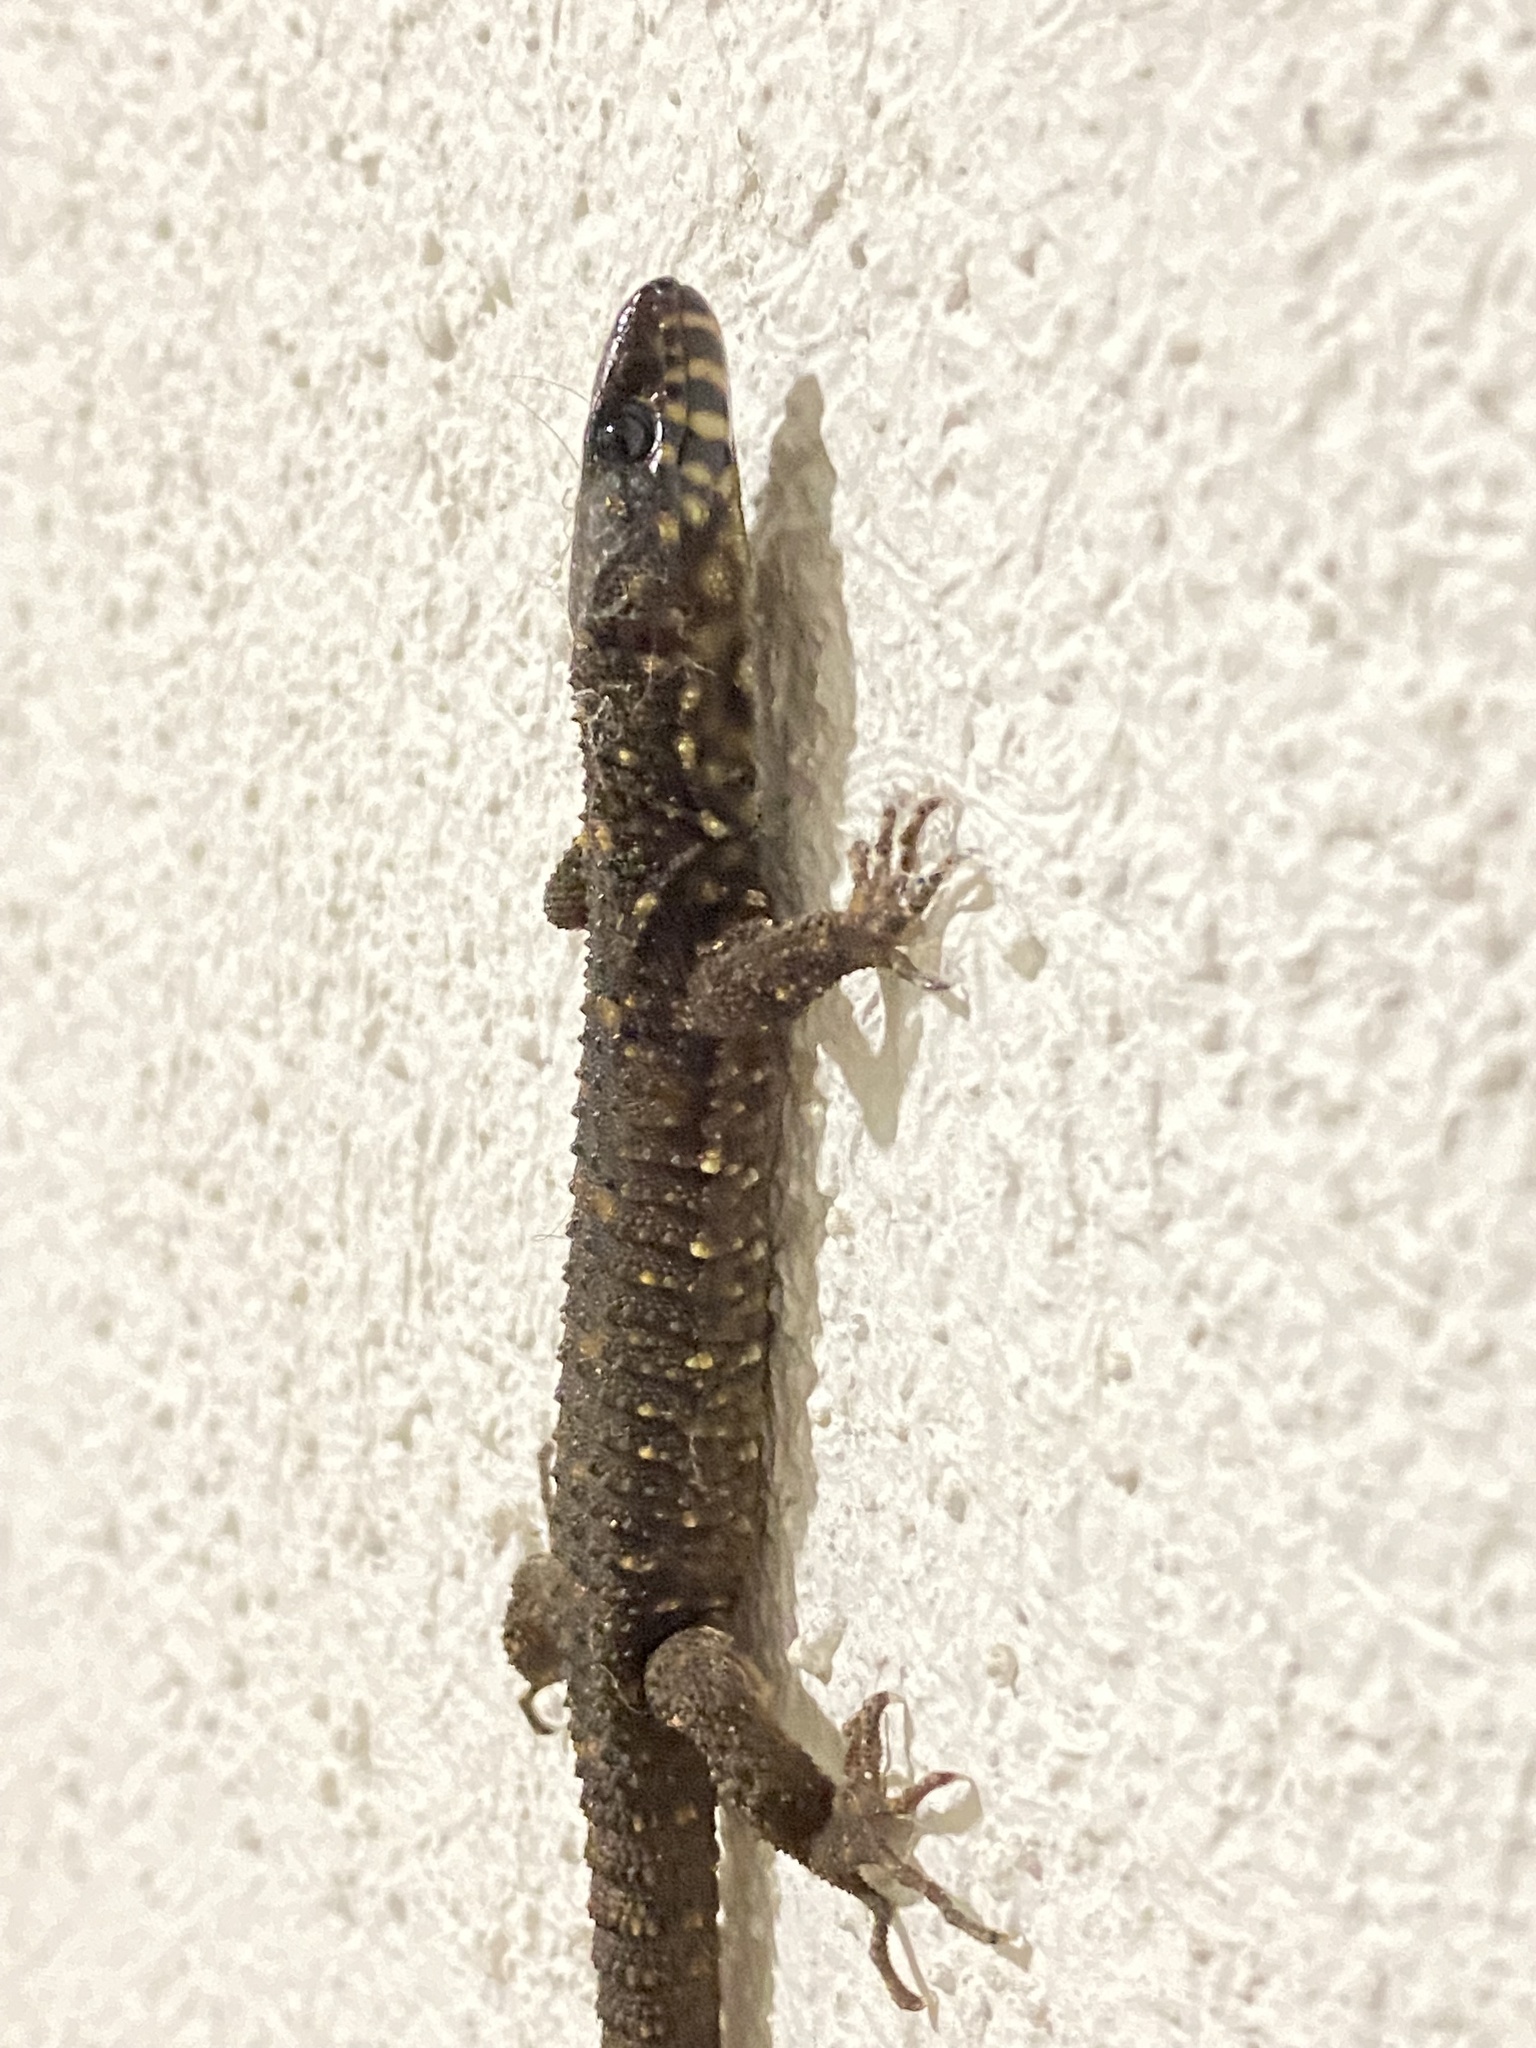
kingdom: Animalia
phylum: Chordata
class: Squamata
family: Xantusiidae
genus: Lepidophyma
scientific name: Lepidophyma flavimaculatum
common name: Yellow-spotted night lizard
